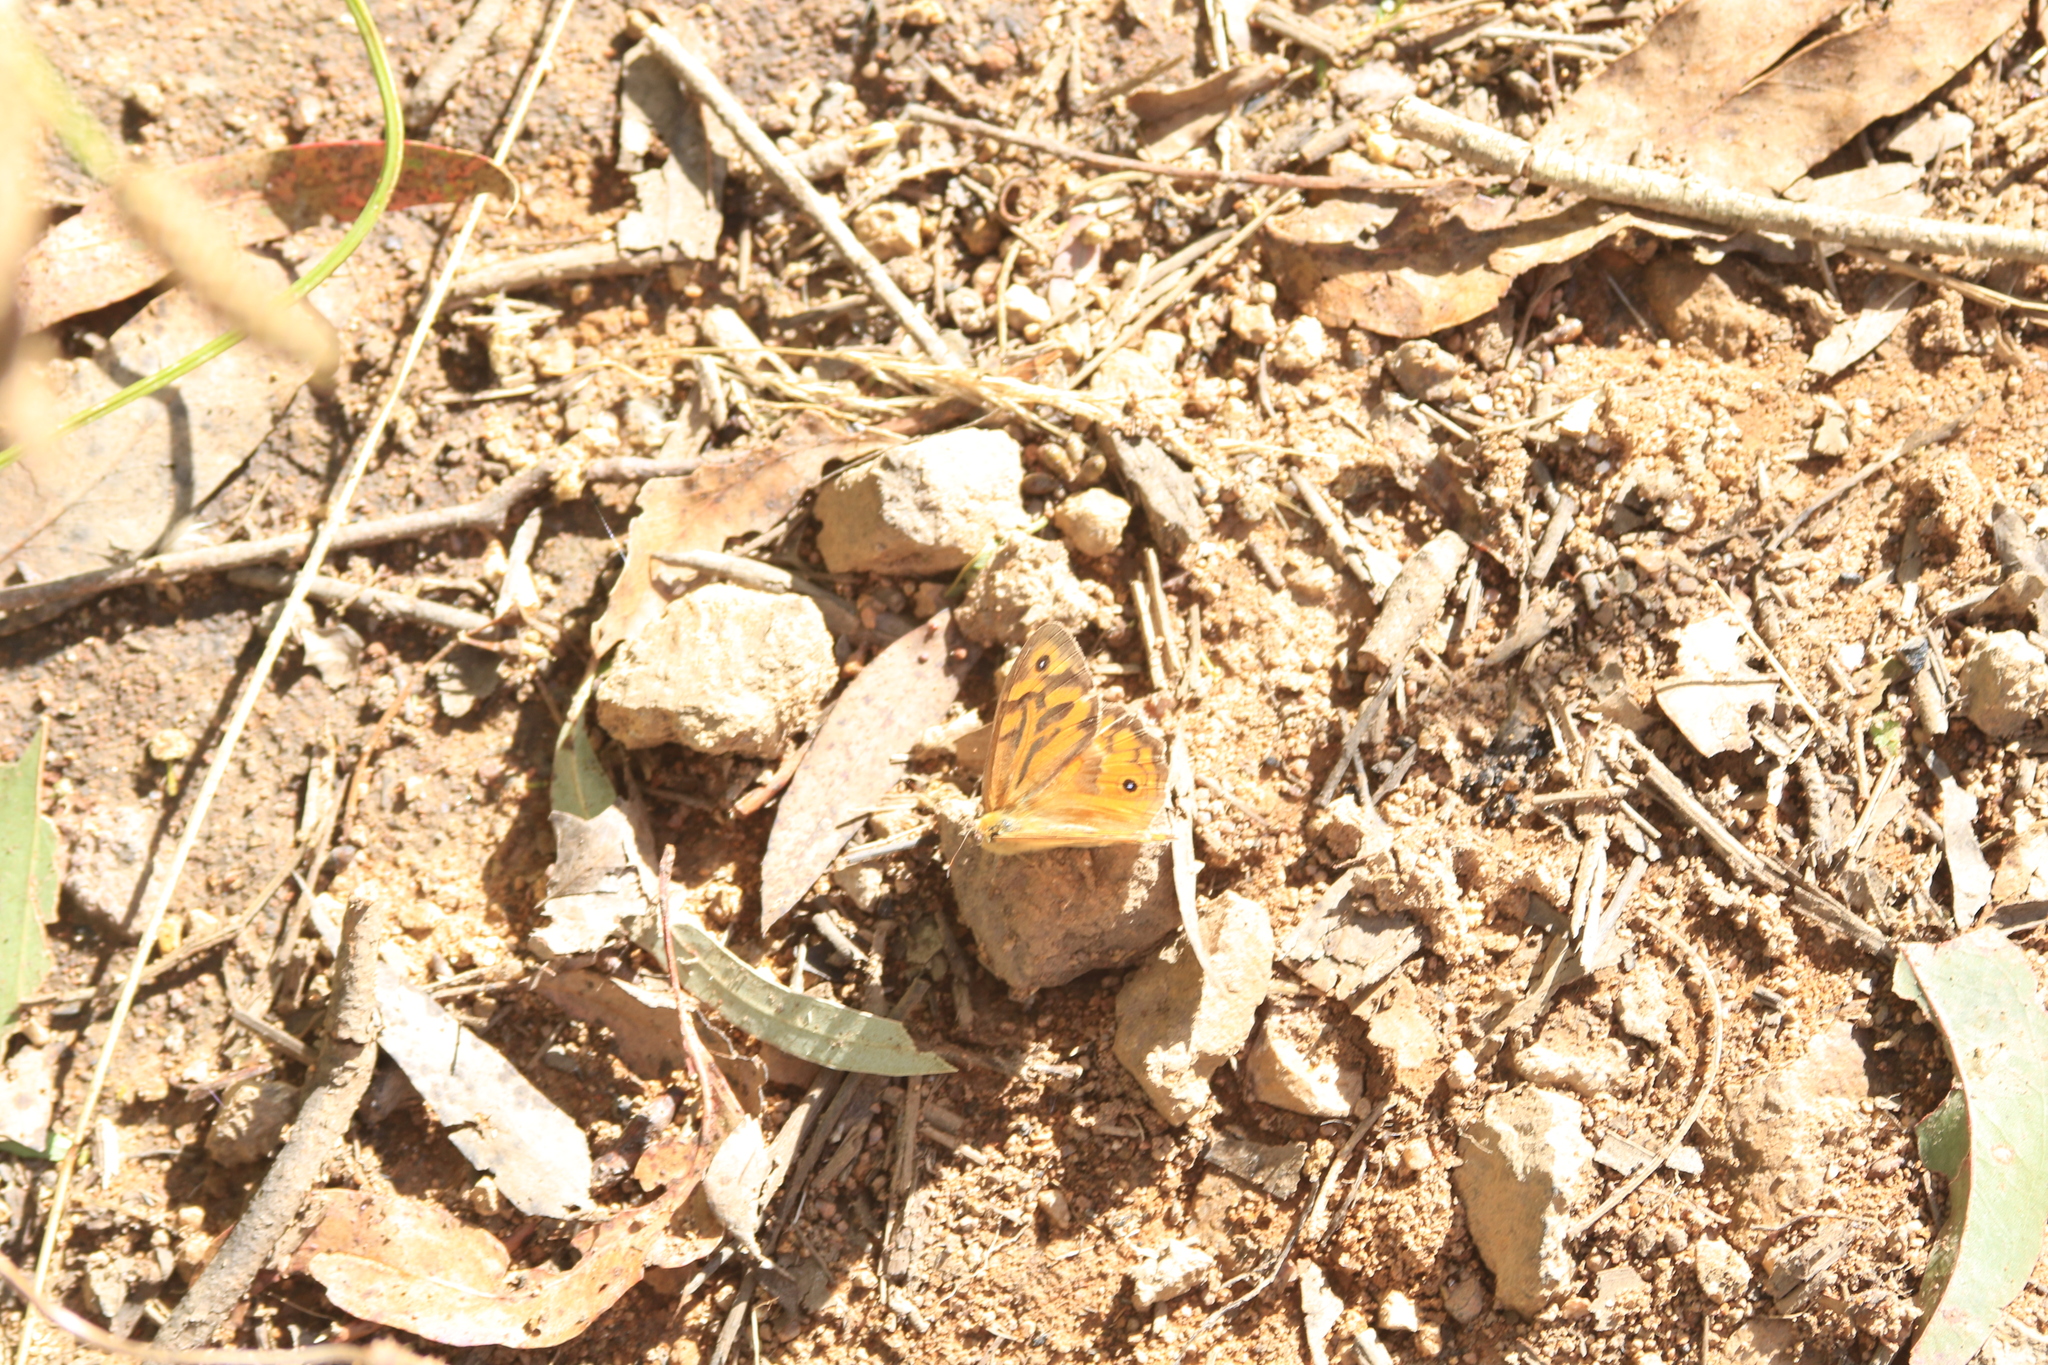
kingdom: Animalia
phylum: Arthropoda
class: Insecta
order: Lepidoptera
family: Nymphalidae
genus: Heteronympha
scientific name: Heteronympha merope
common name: Common brown
